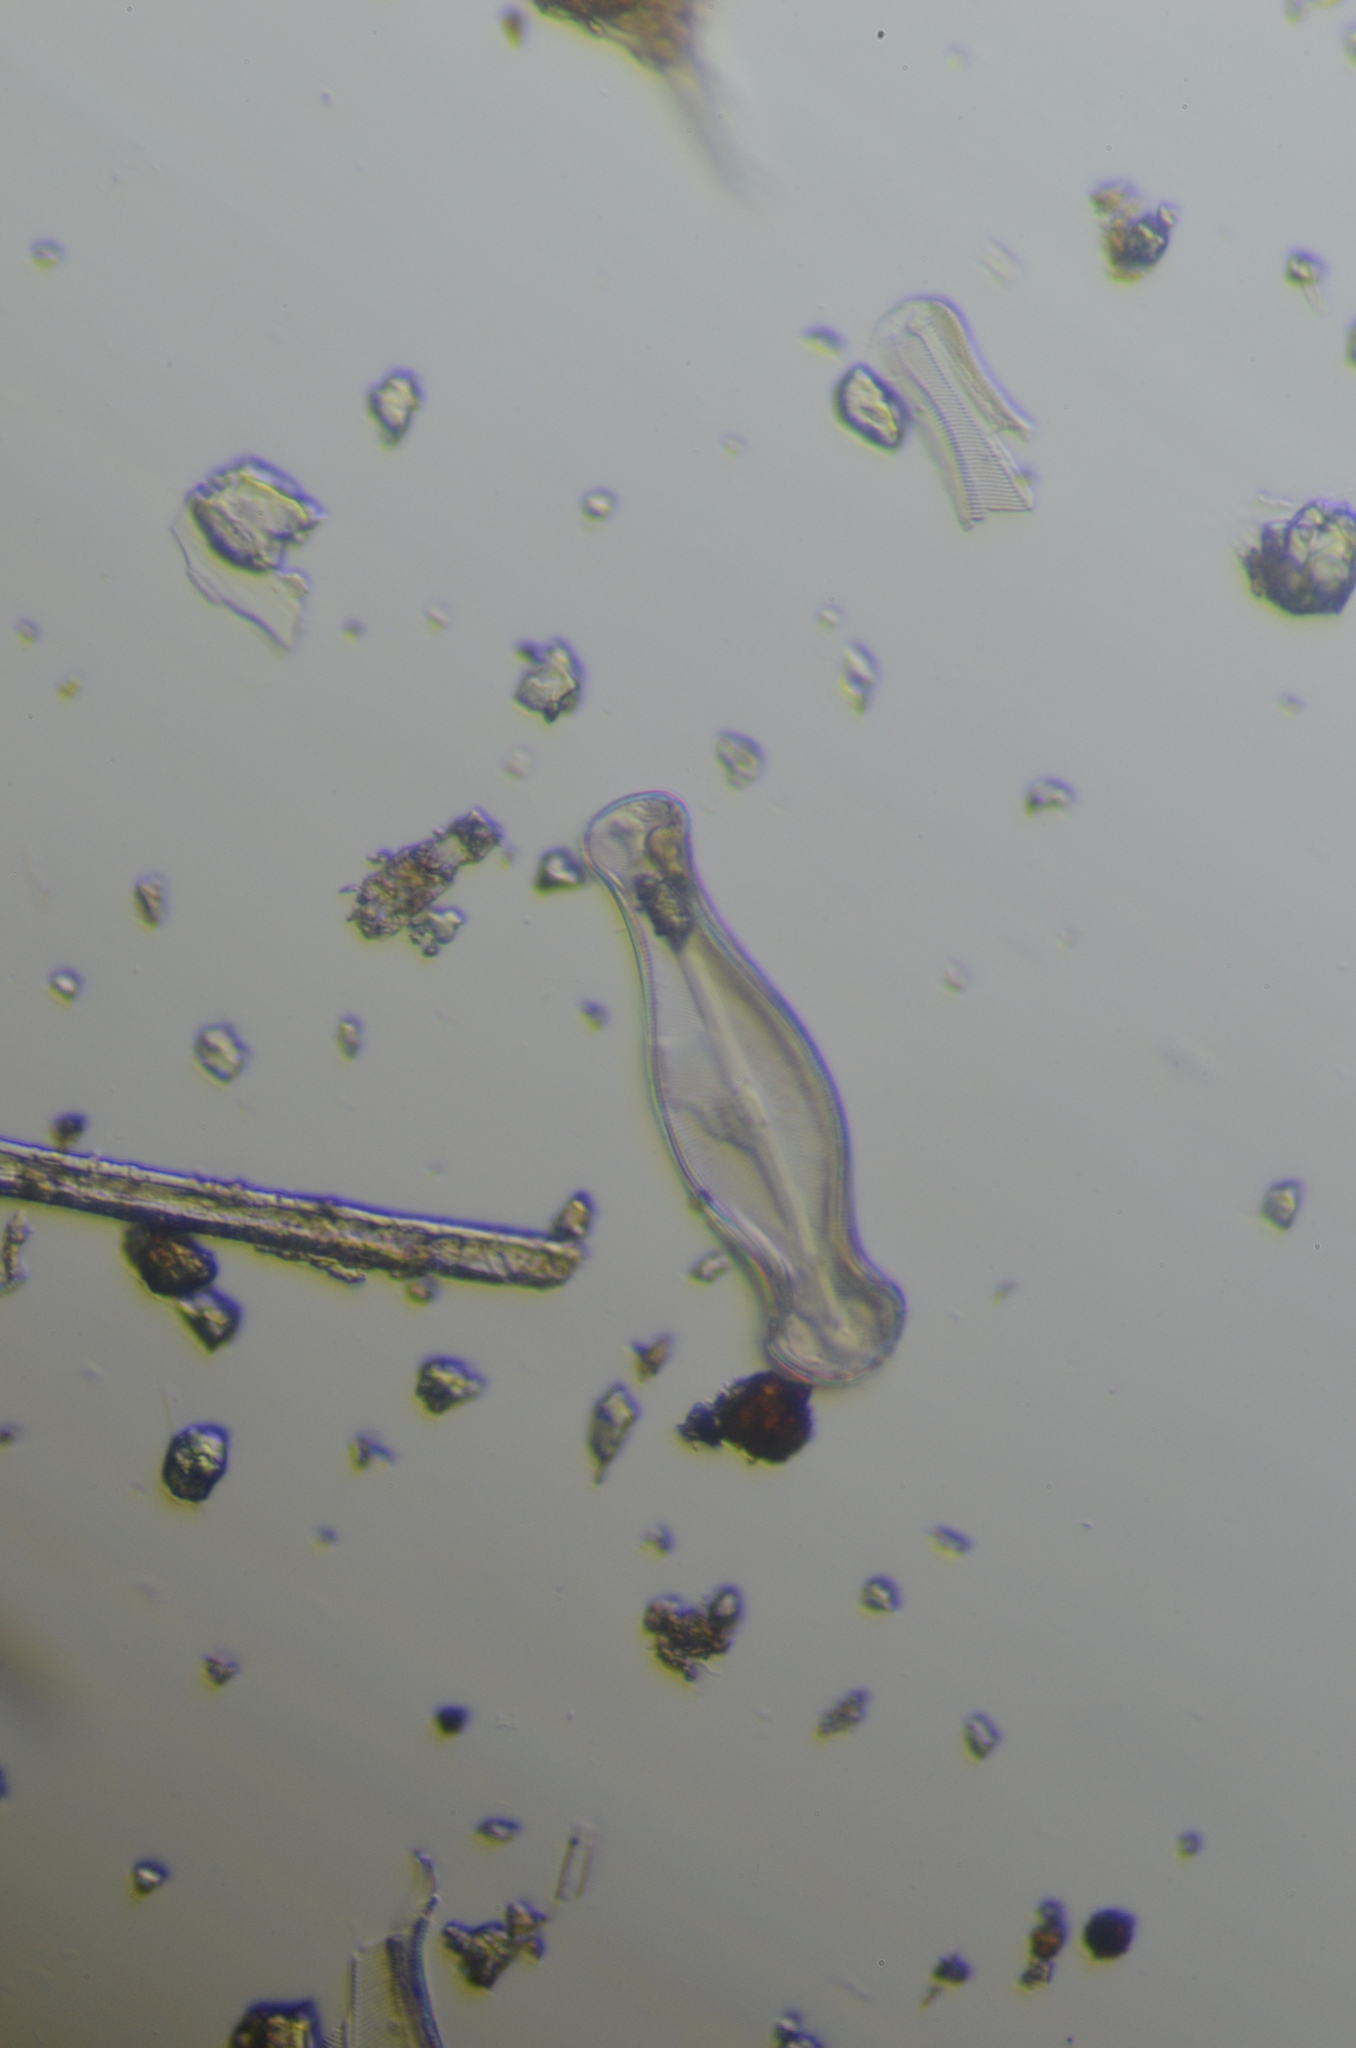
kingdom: Chromista
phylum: Ochrophyta
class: Bacillariophyceae
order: Cymbellales
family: Cymbellaceae
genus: Didymosphenia
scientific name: Didymosphenia geminatum
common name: Didymo
